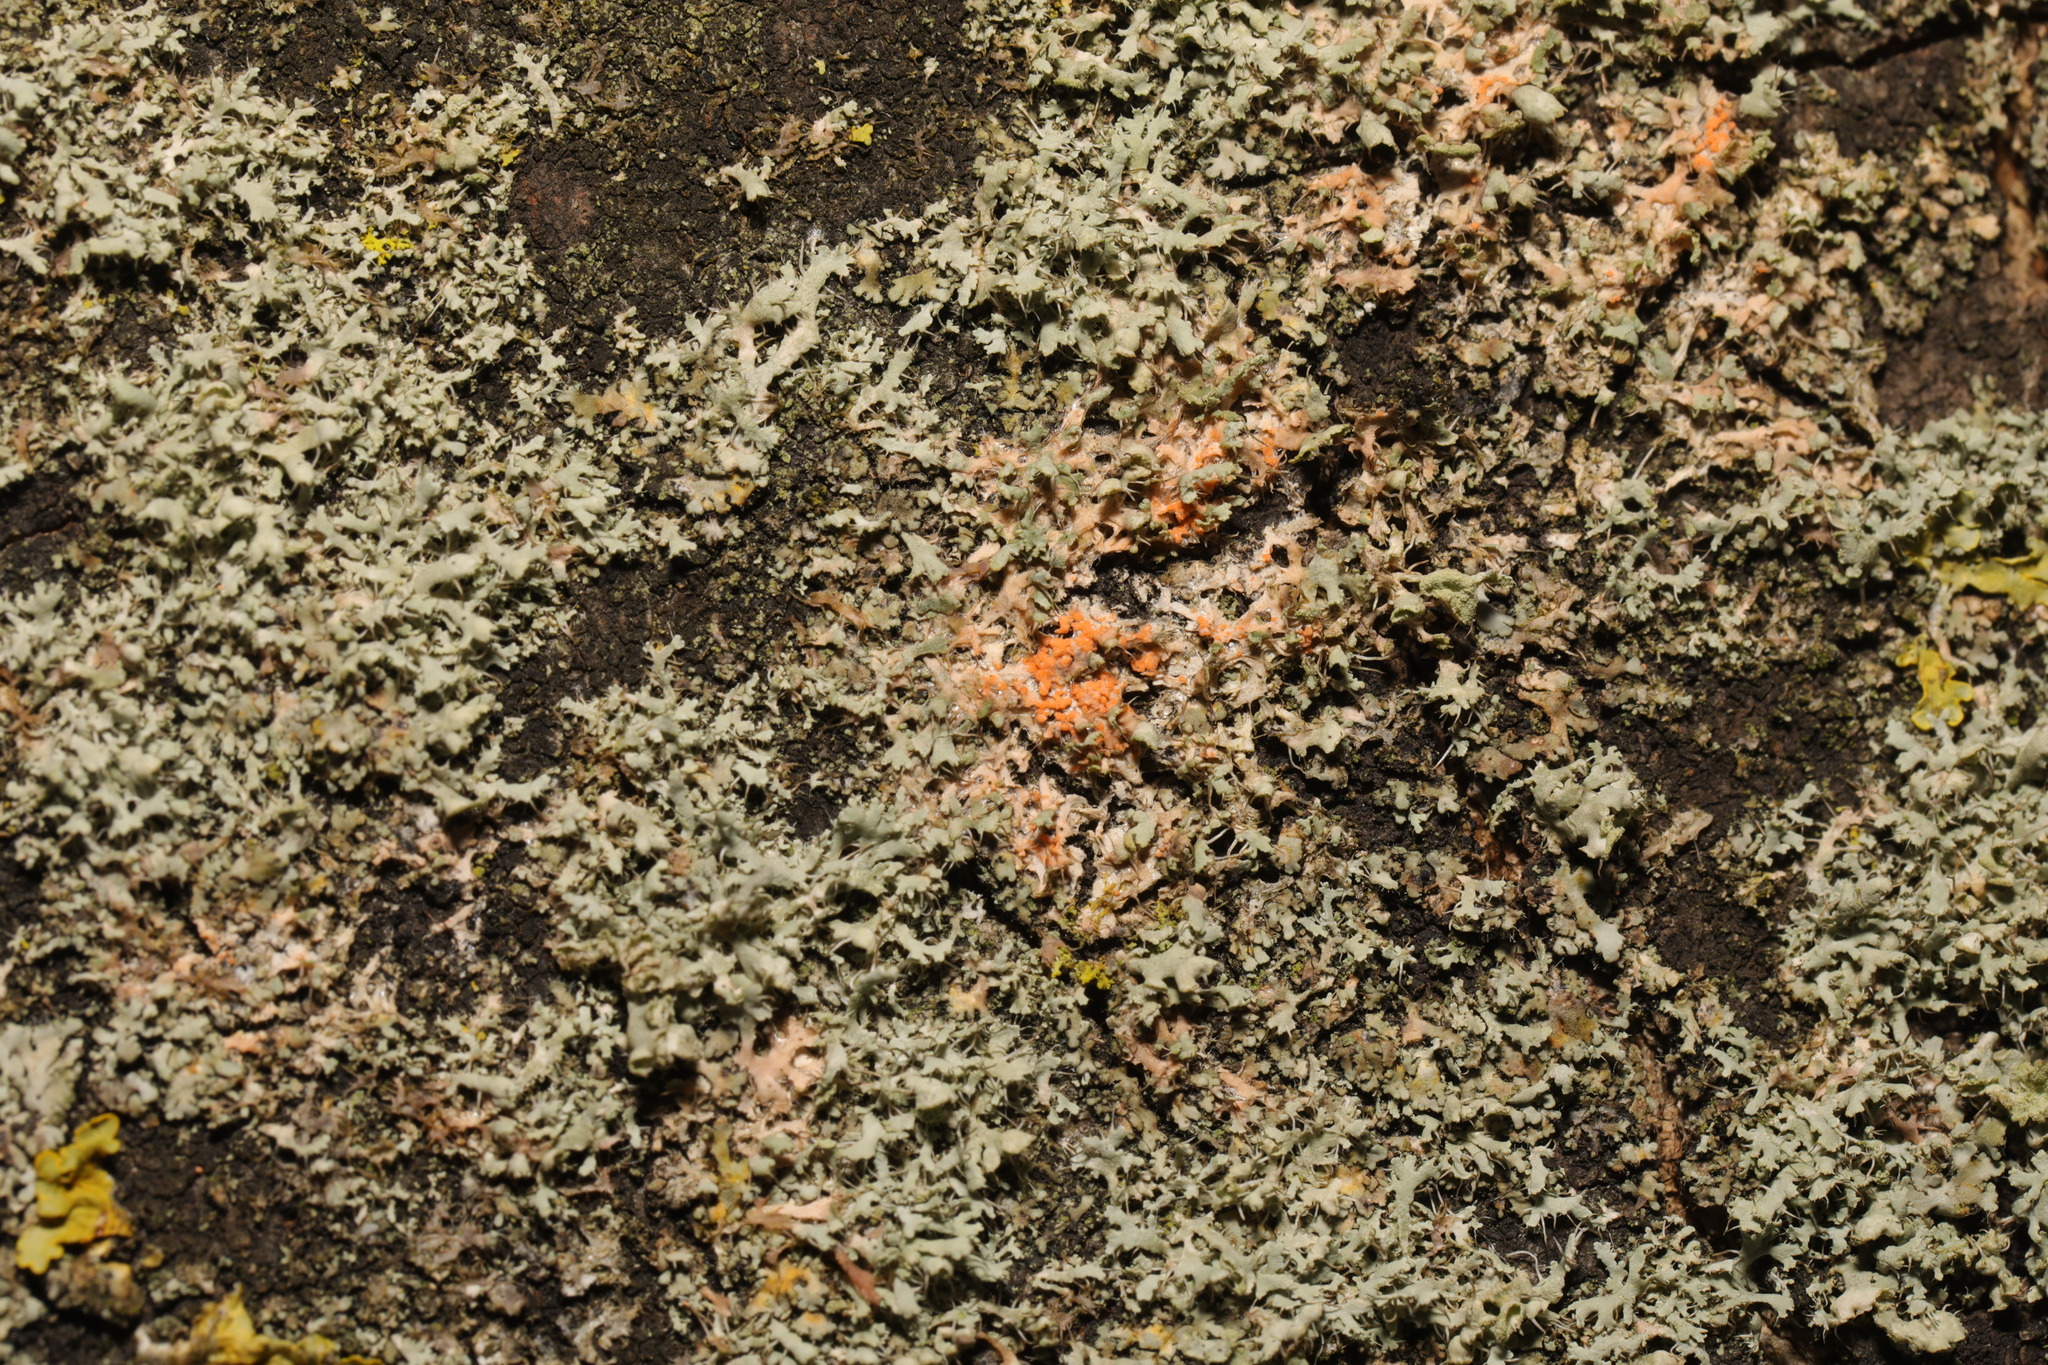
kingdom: Fungi
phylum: Basidiomycota
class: Agaricomycetes
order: Corticiales
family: Corticiaceae
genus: Erythricium
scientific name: Erythricium aurantiacum
